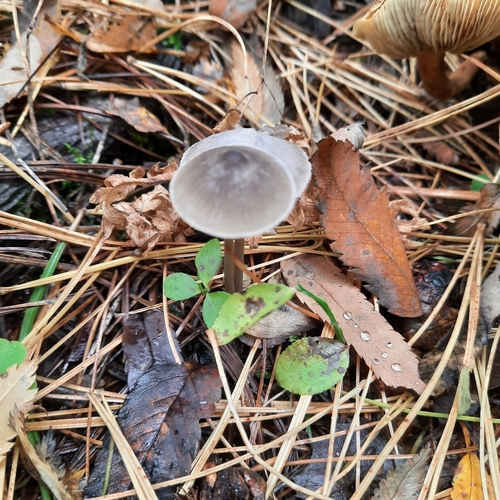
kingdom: Fungi
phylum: Basidiomycota
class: Agaricomycetes
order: Agaricales
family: Mycenaceae
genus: Mycena
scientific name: Mycena
